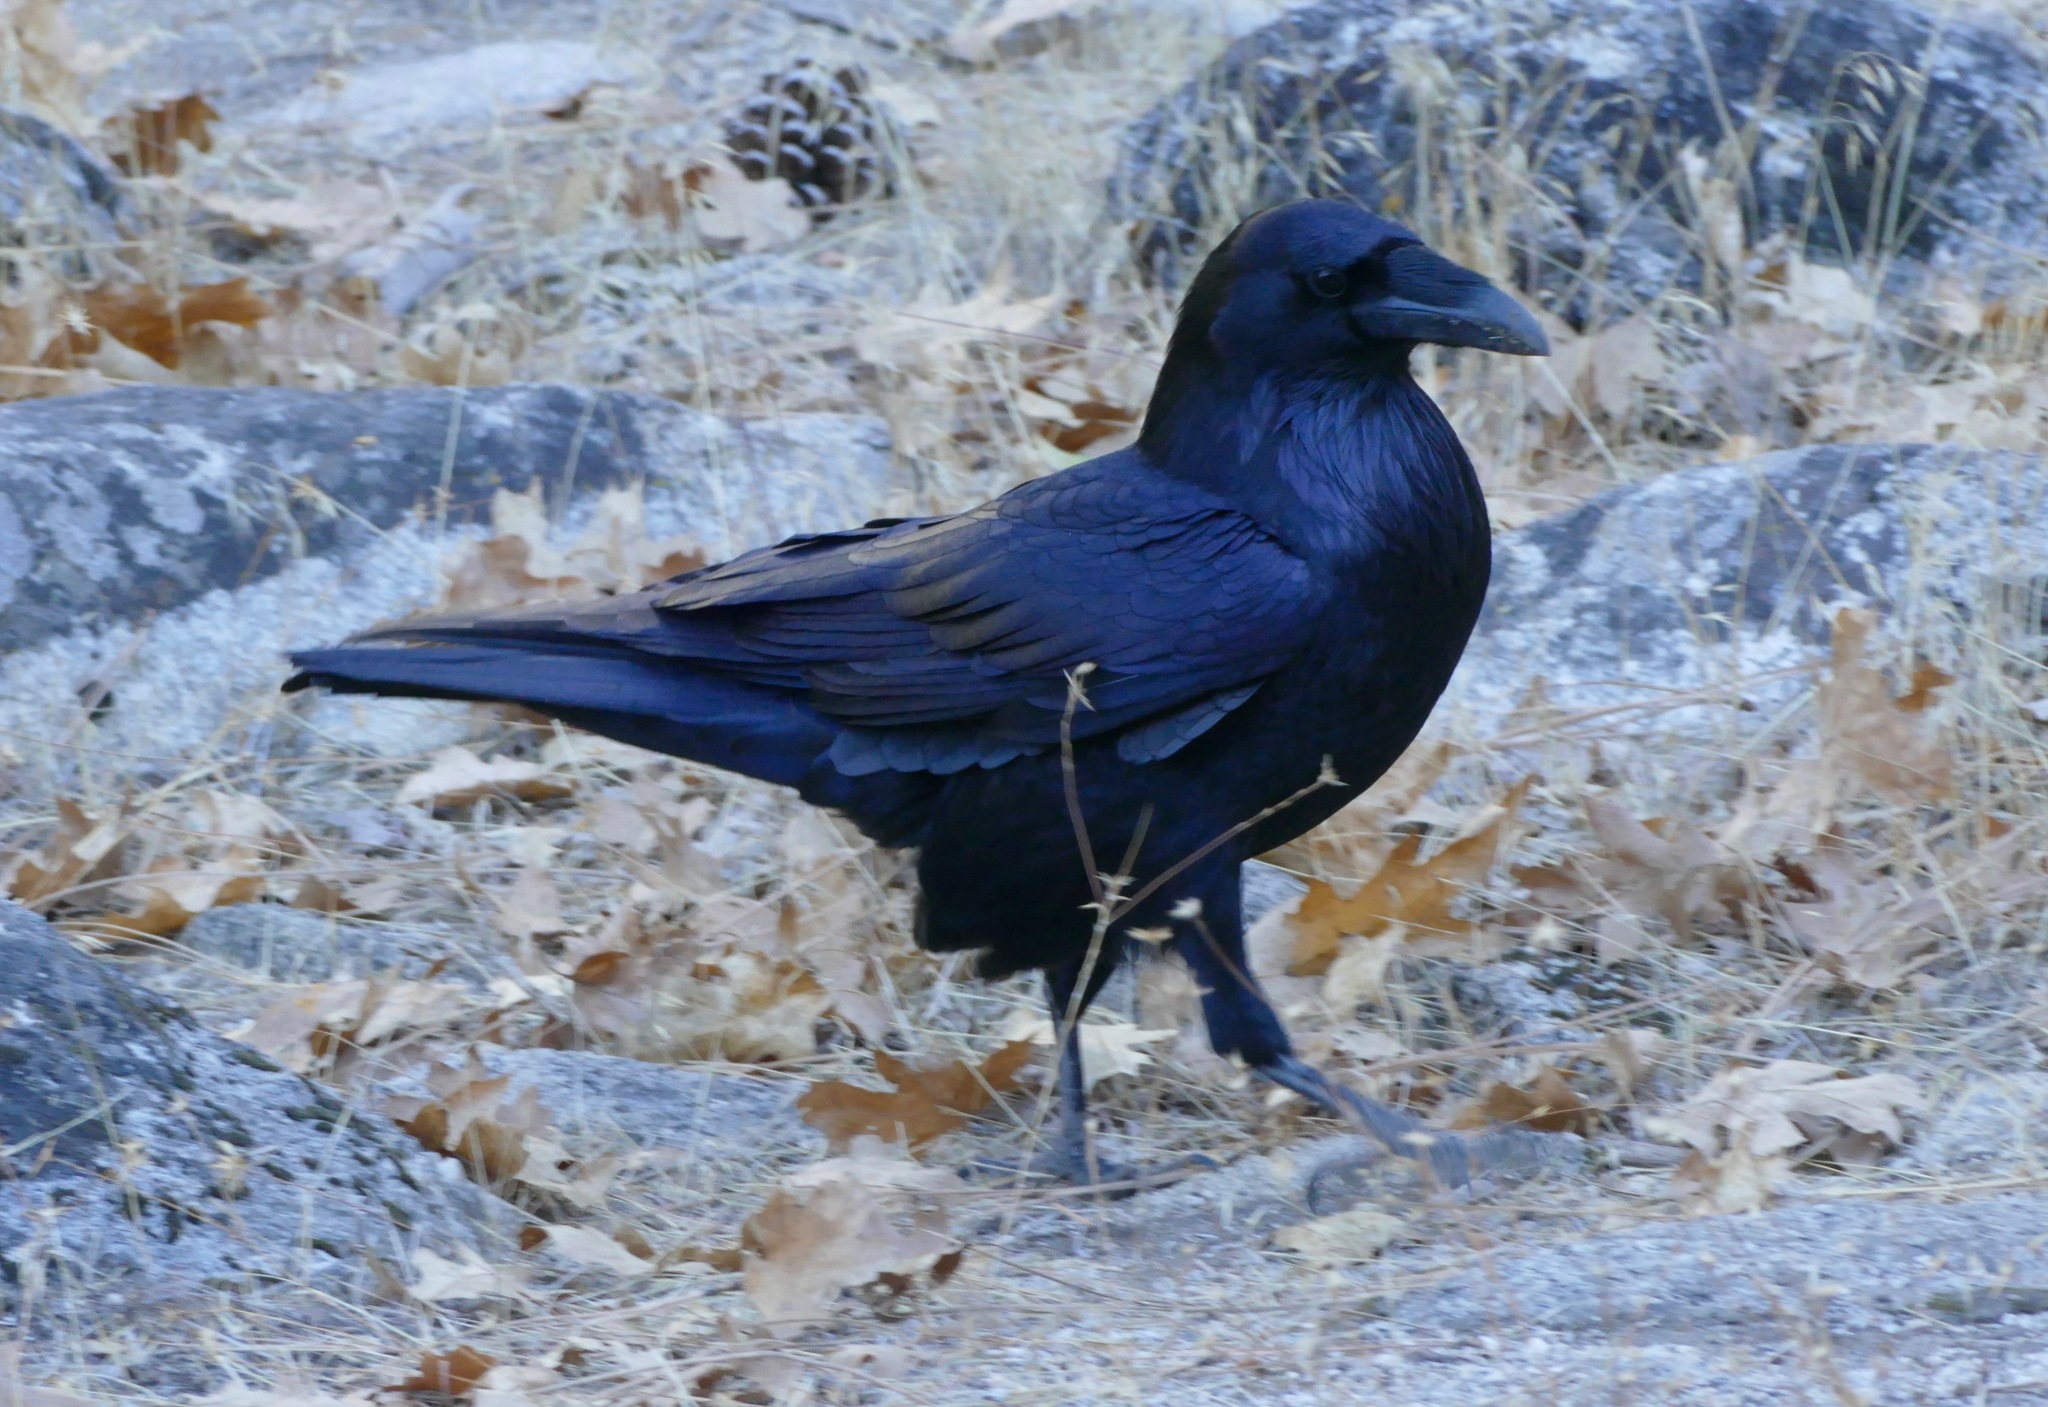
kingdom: Animalia
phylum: Chordata
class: Aves
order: Passeriformes
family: Corvidae
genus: Corvus
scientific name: Corvus corax
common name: Common raven
